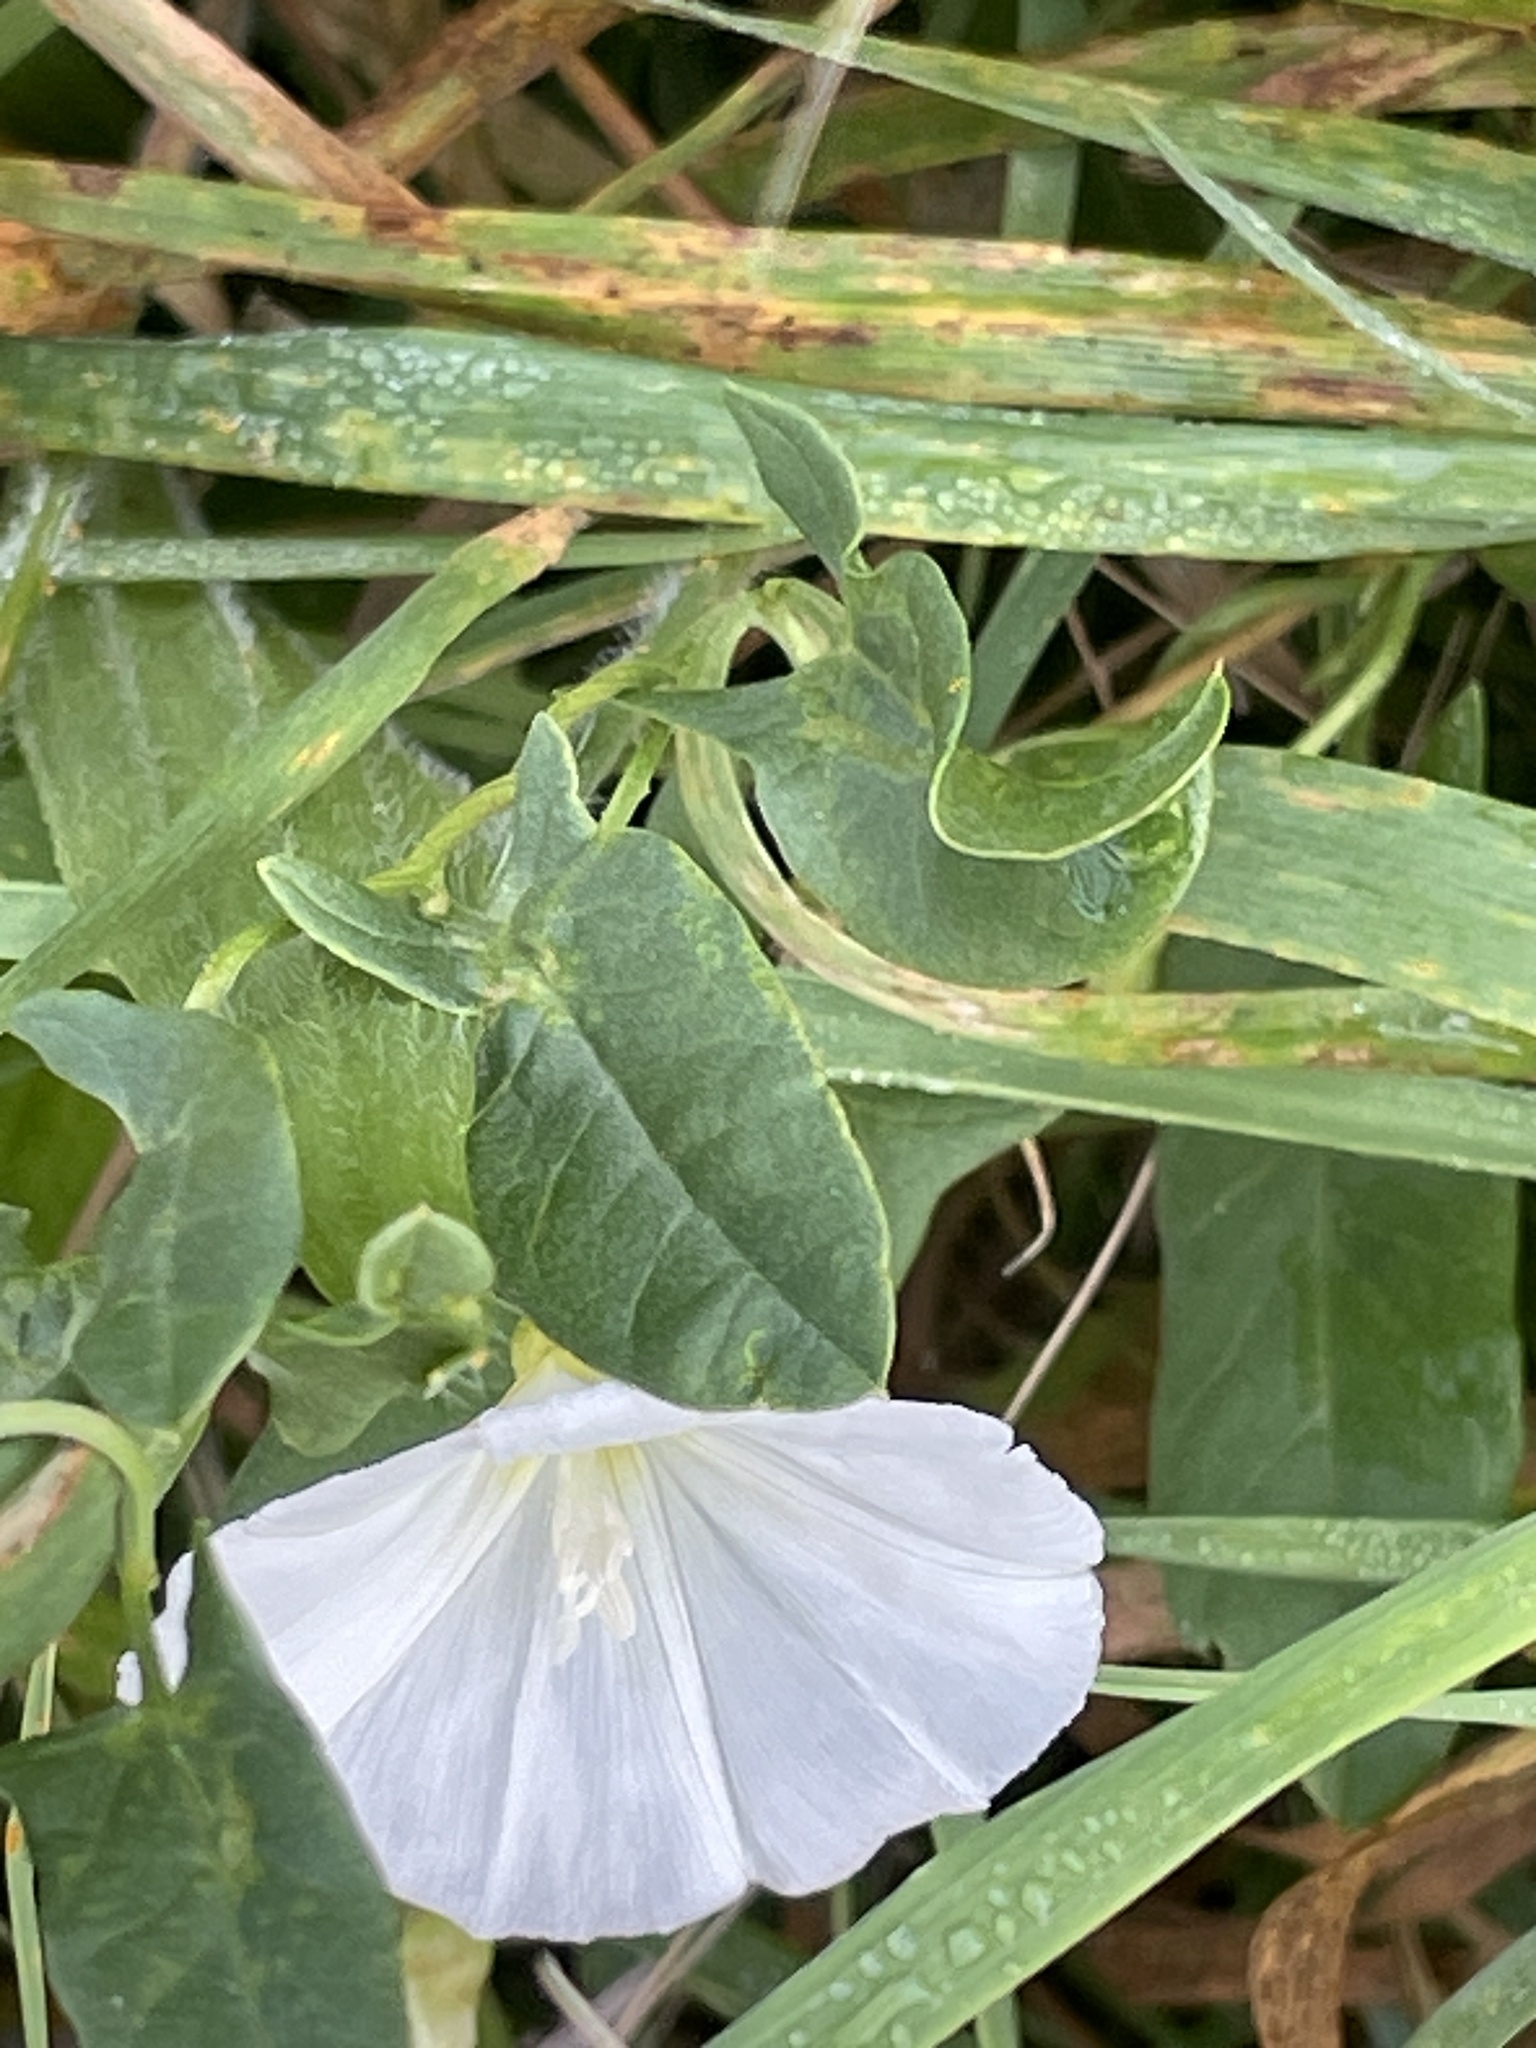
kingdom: Plantae
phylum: Tracheophyta
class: Magnoliopsida
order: Solanales
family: Convolvulaceae
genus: Convolvulus
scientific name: Convolvulus arvensis
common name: Field bindweed
